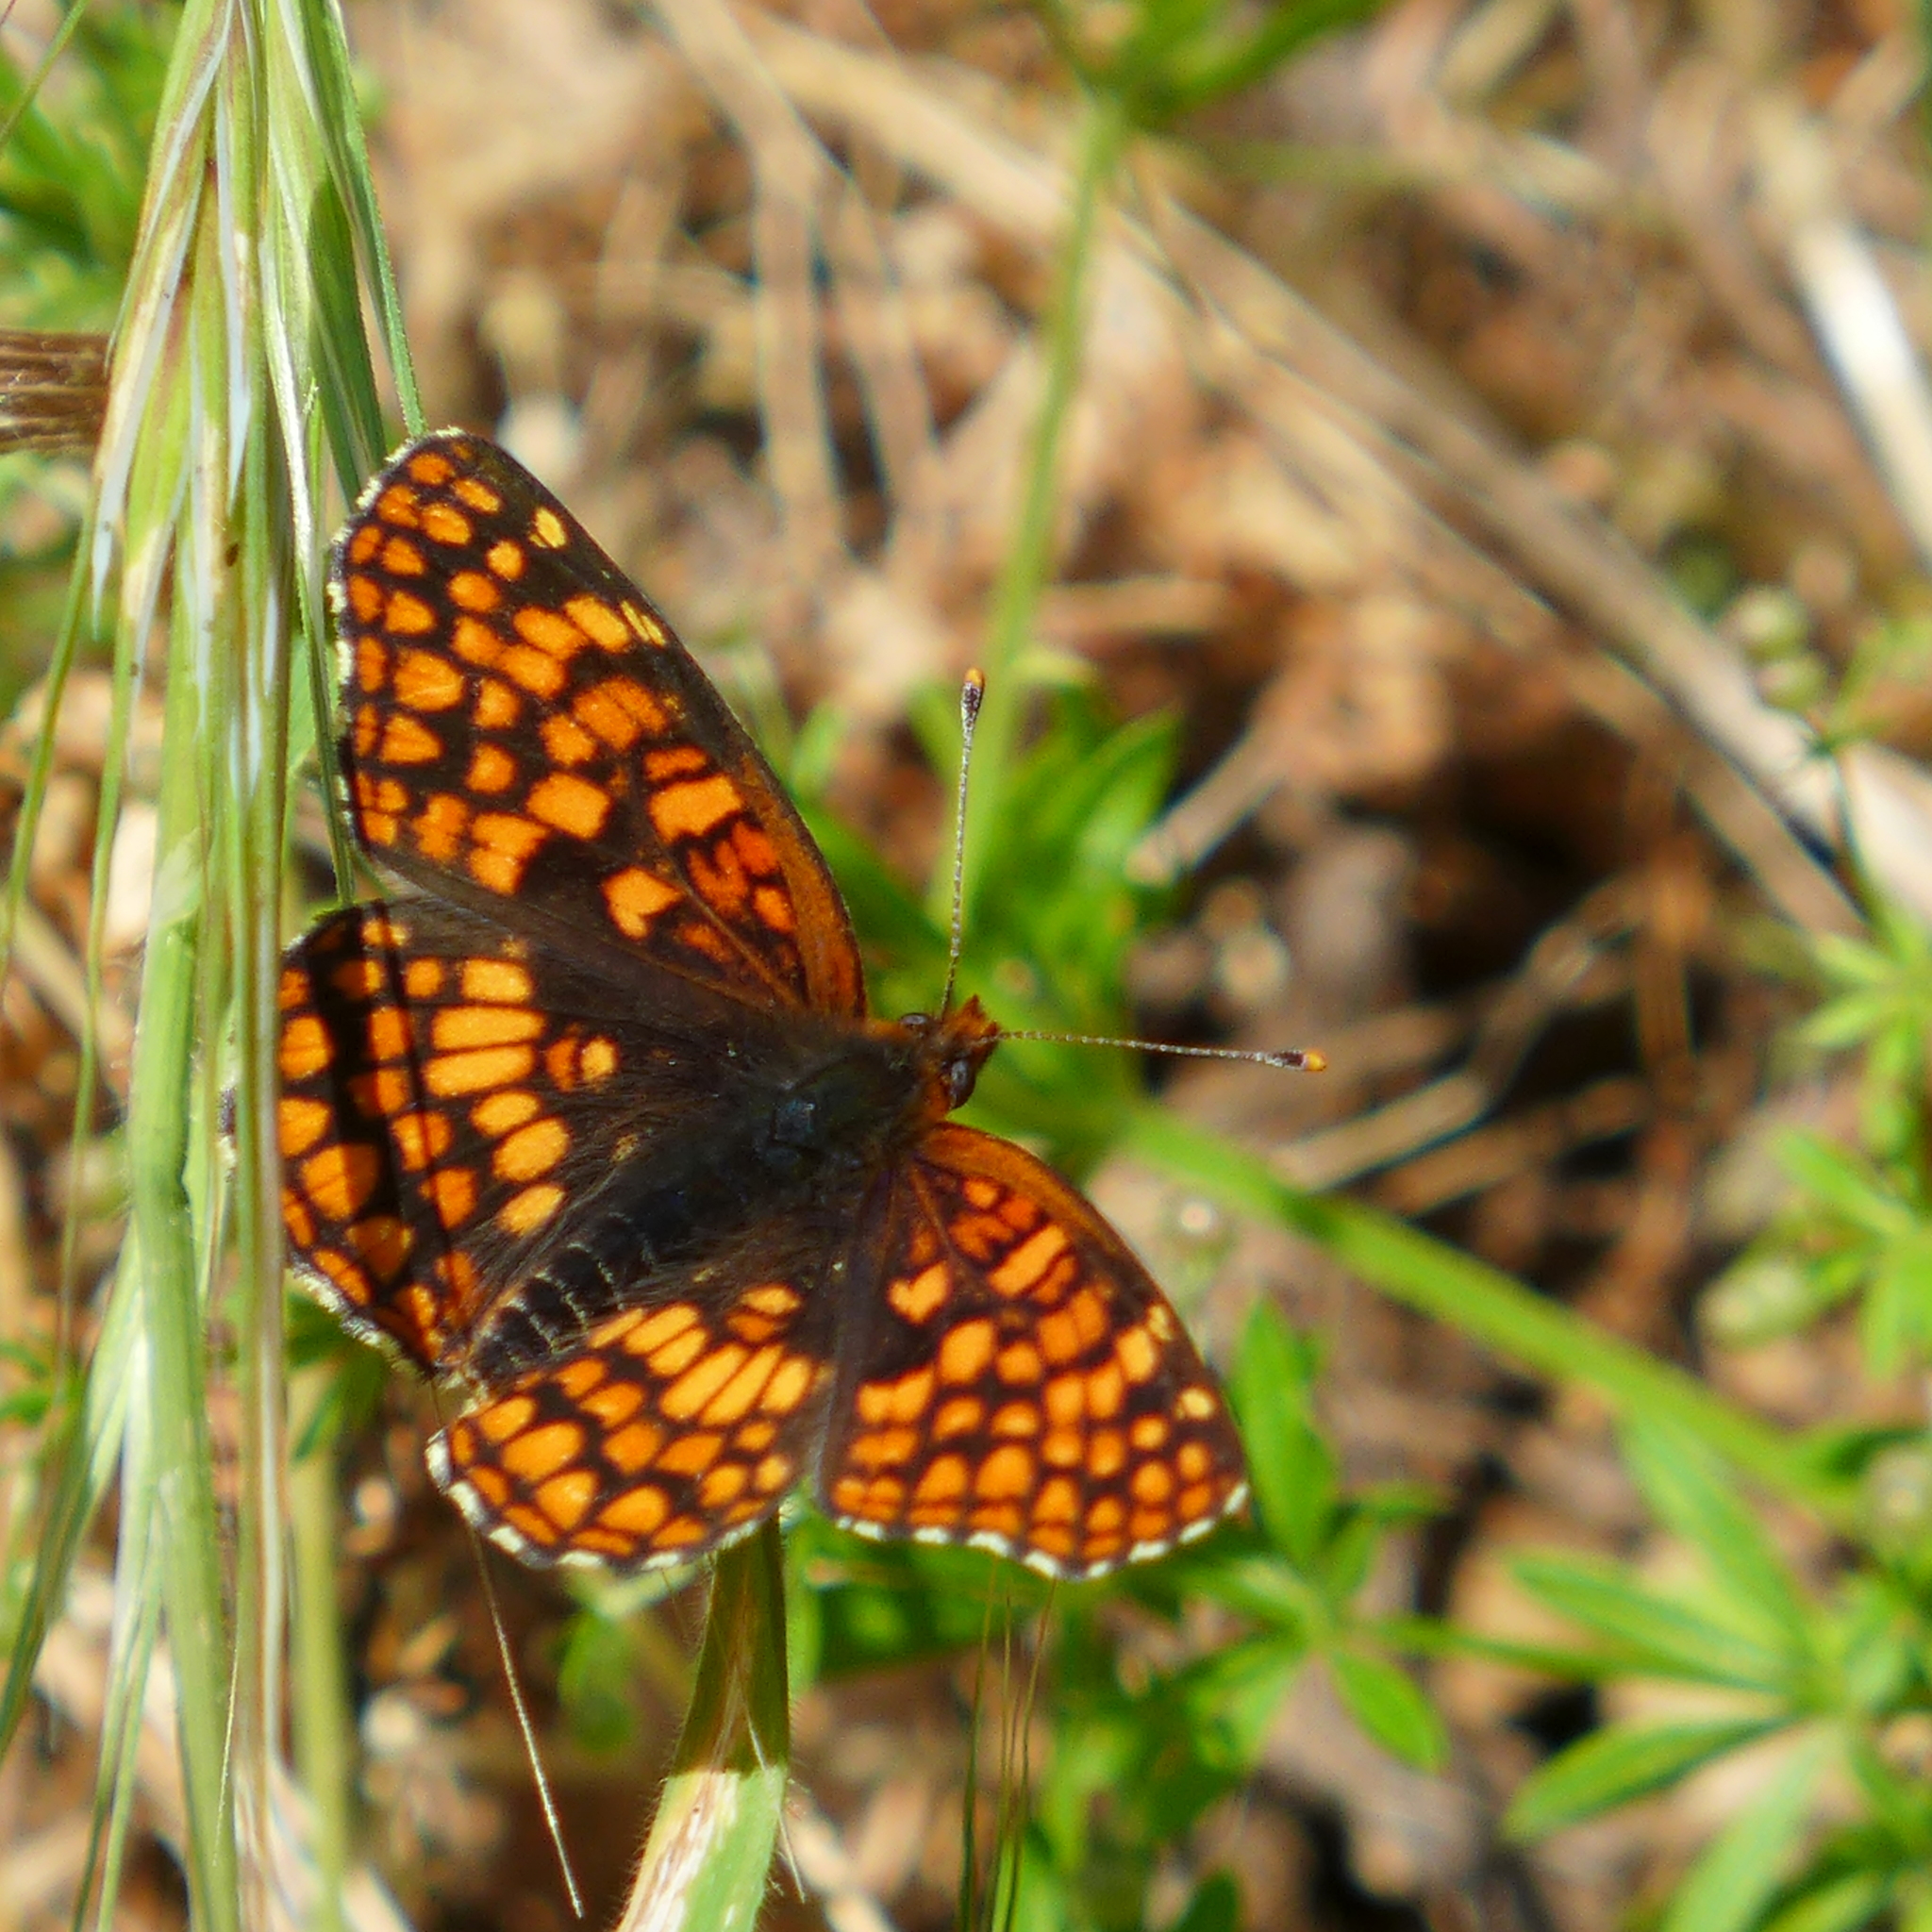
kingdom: Animalia
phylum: Arthropoda
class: Insecta
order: Lepidoptera
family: Nymphalidae
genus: Chlosyne
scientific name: Chlosyne palla
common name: Northern checkerspot
